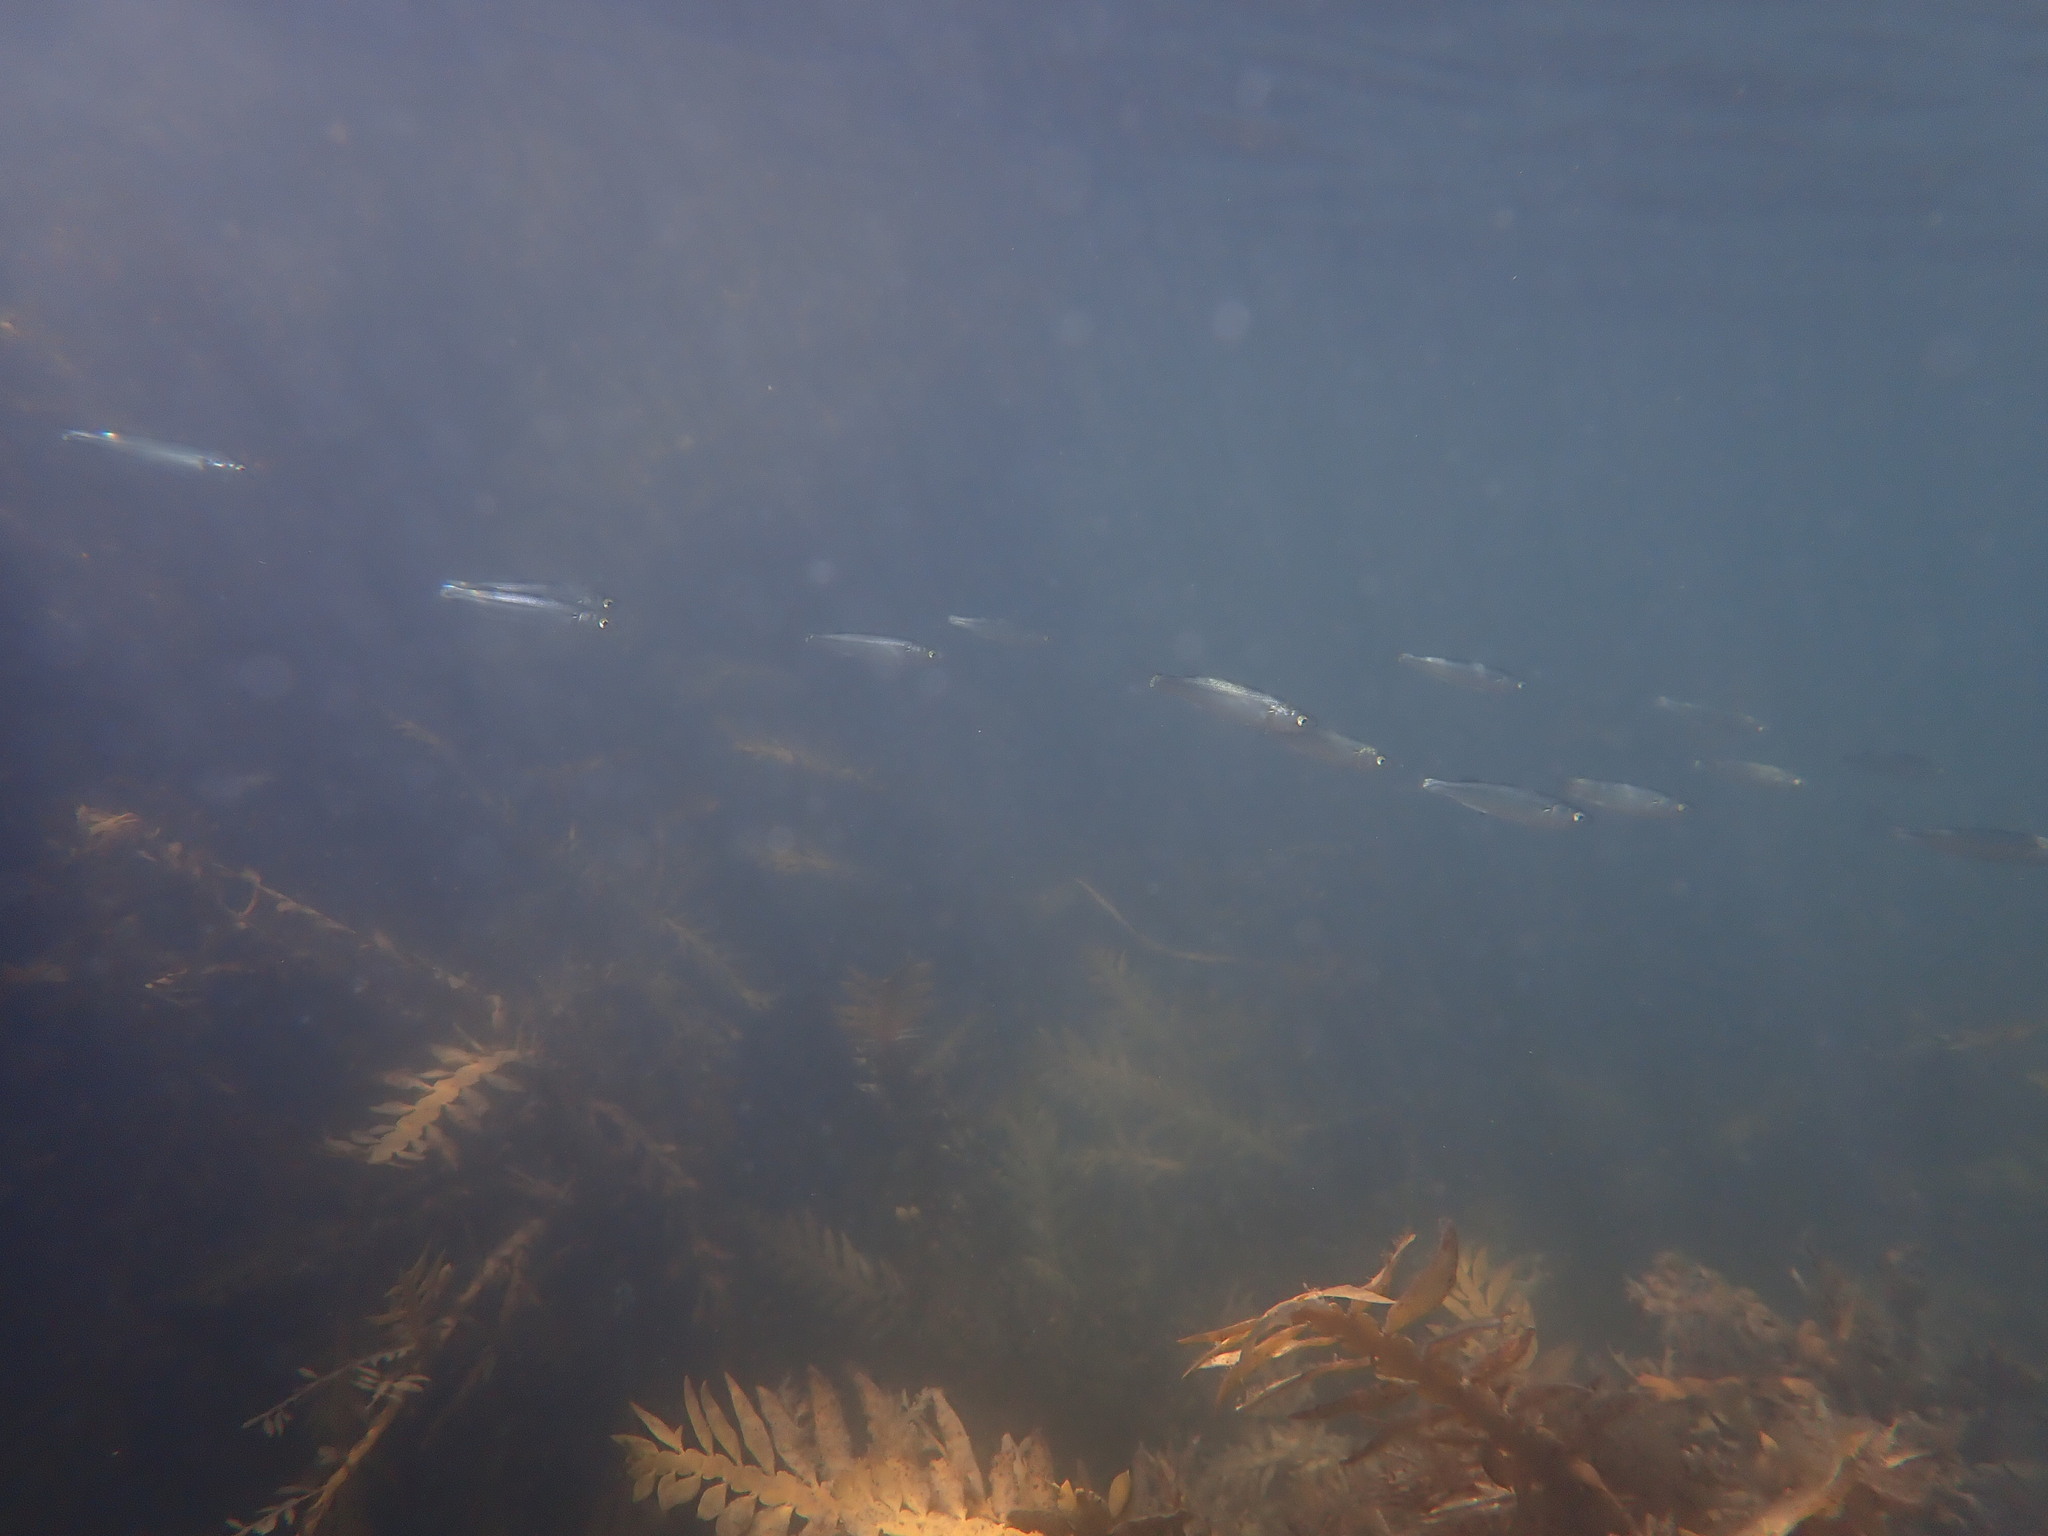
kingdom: Animalia
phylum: Chordata
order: Mugiliformes
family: Mugilidae
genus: Aldrichetta
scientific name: Aldrichetta forsteri
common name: Yellow-eye mullet
